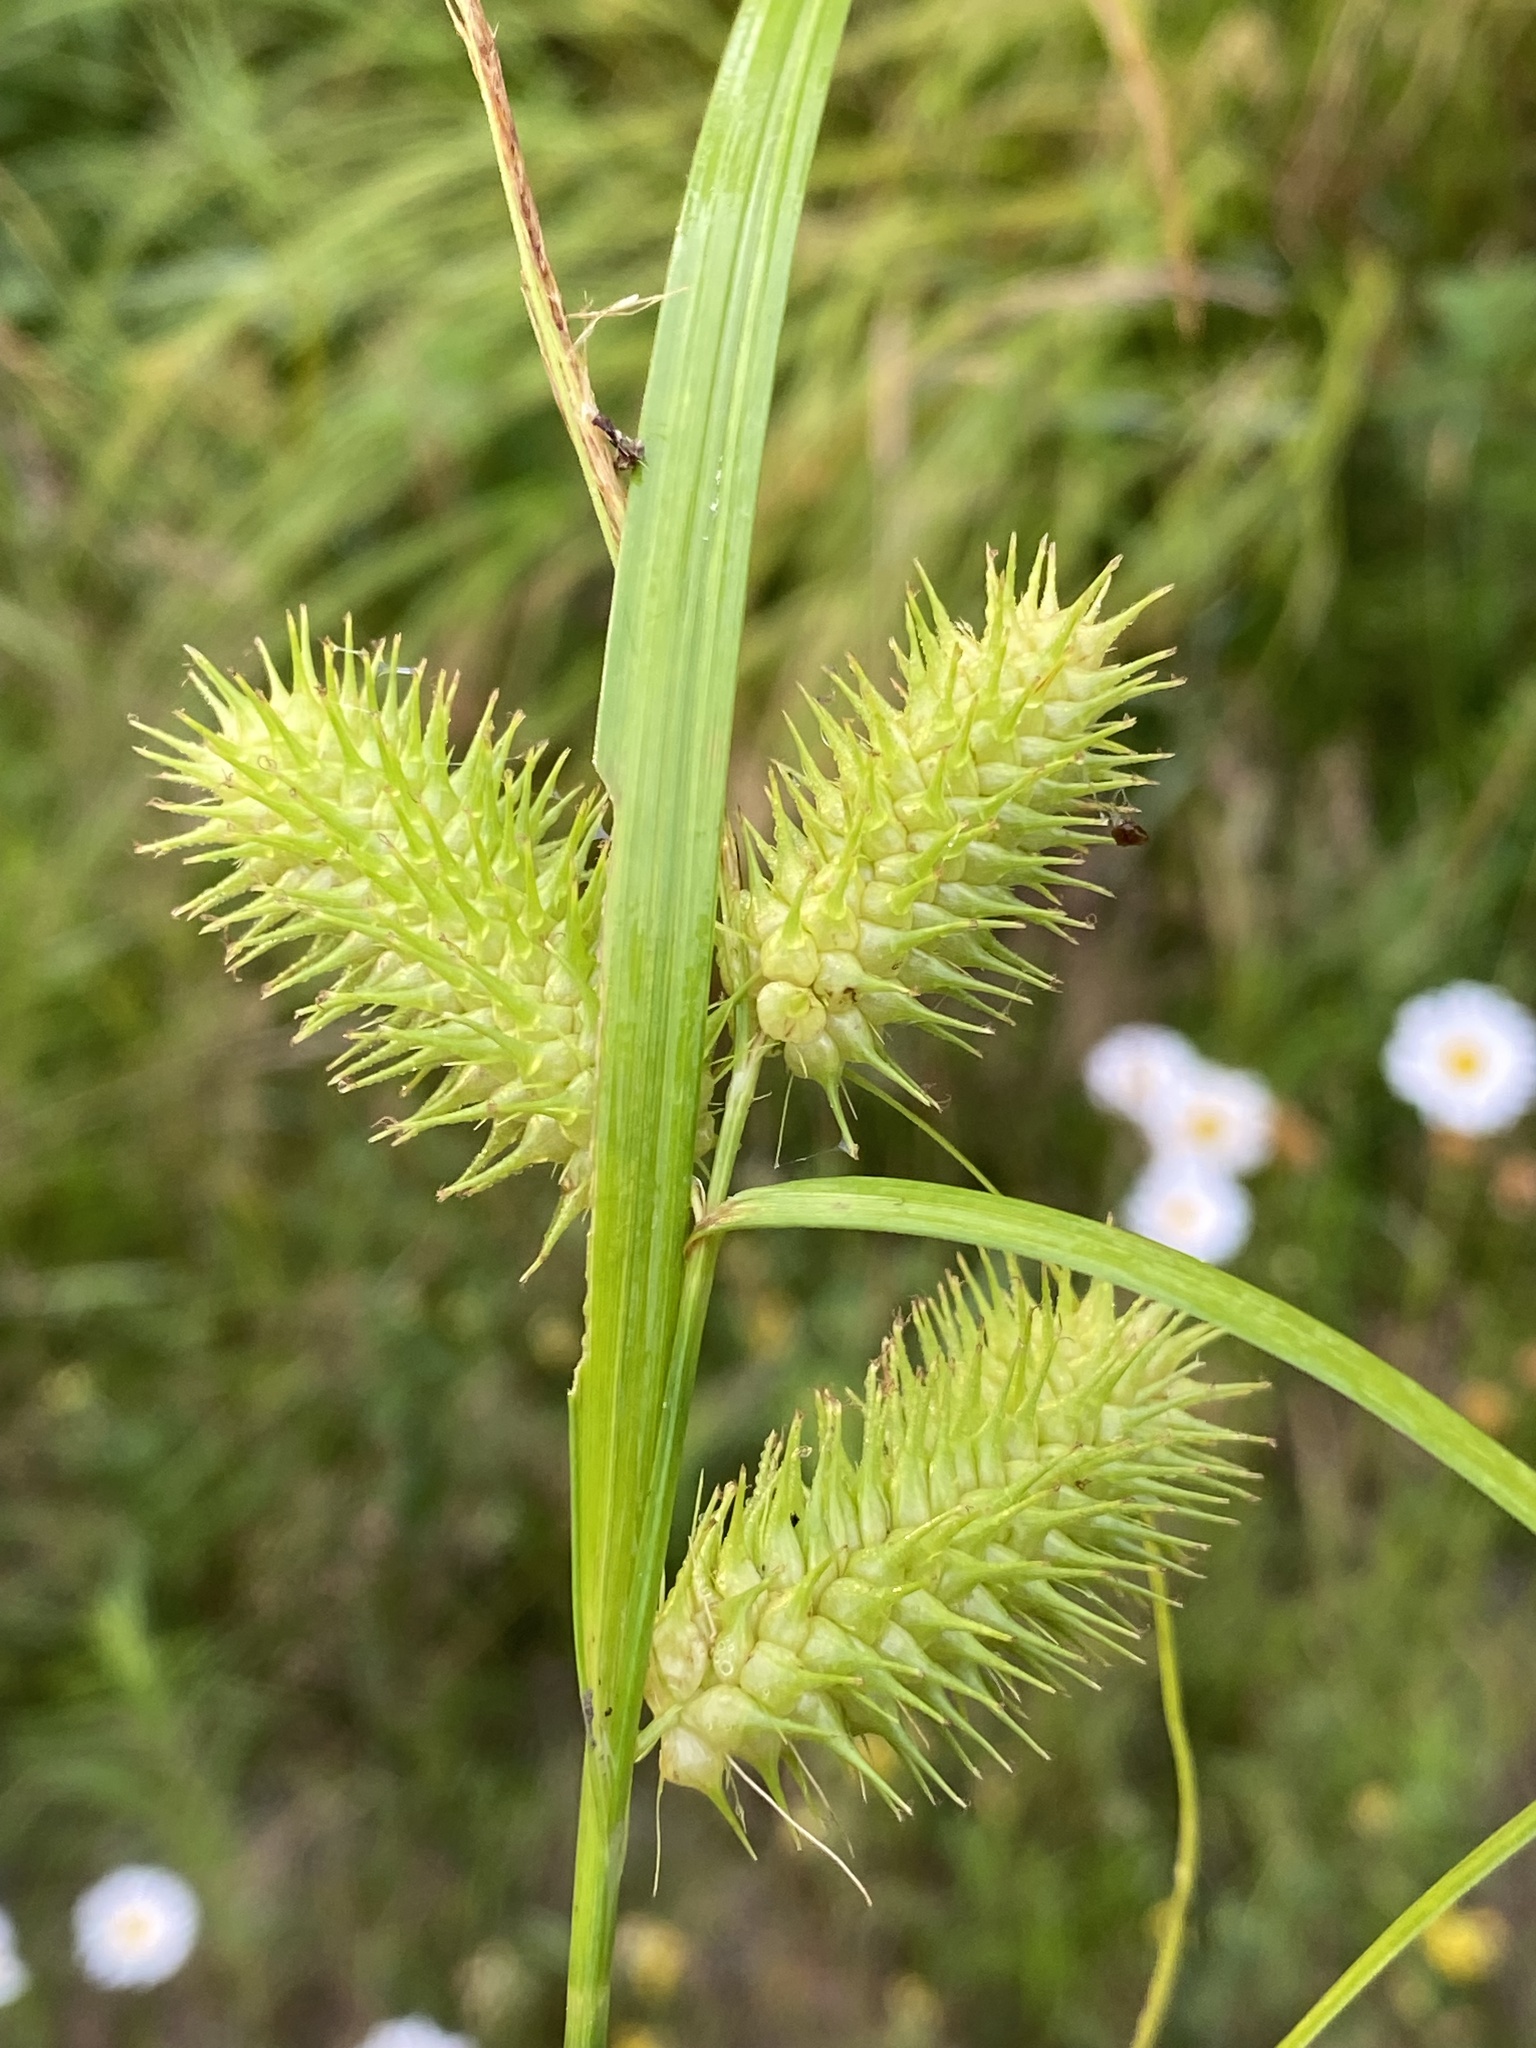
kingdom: Plantae
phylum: Tracheophyta
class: Liliopsida
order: Poales
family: Cyperaceae
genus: Carex
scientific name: Carex lurida
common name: Sallow sedge
